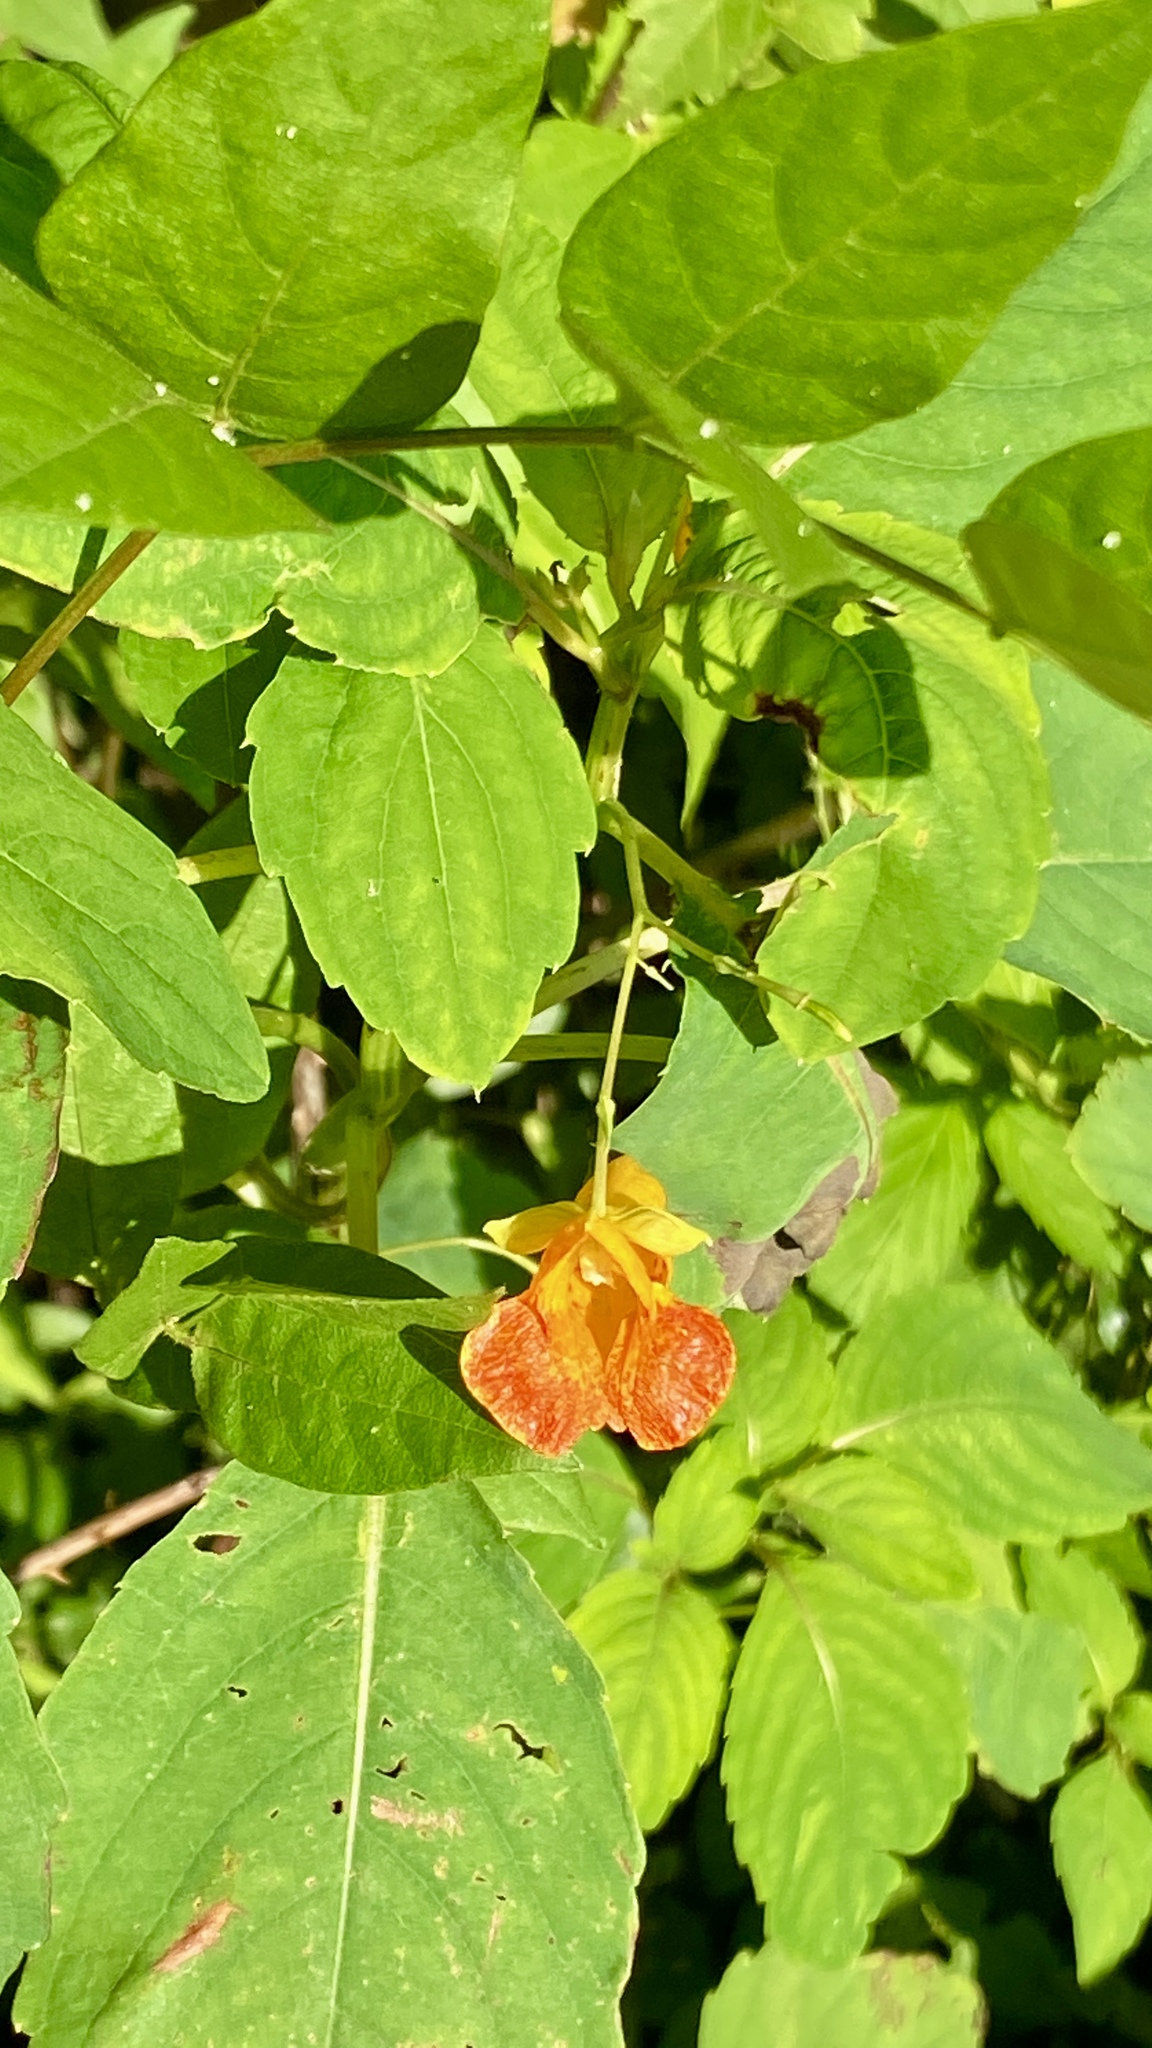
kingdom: Plantae
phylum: Tracheophyta
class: Magnoliopsida
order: Ericales
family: Balsaminaceae
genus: Impatiens
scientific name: Impatiens capensis
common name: Orange balsam
